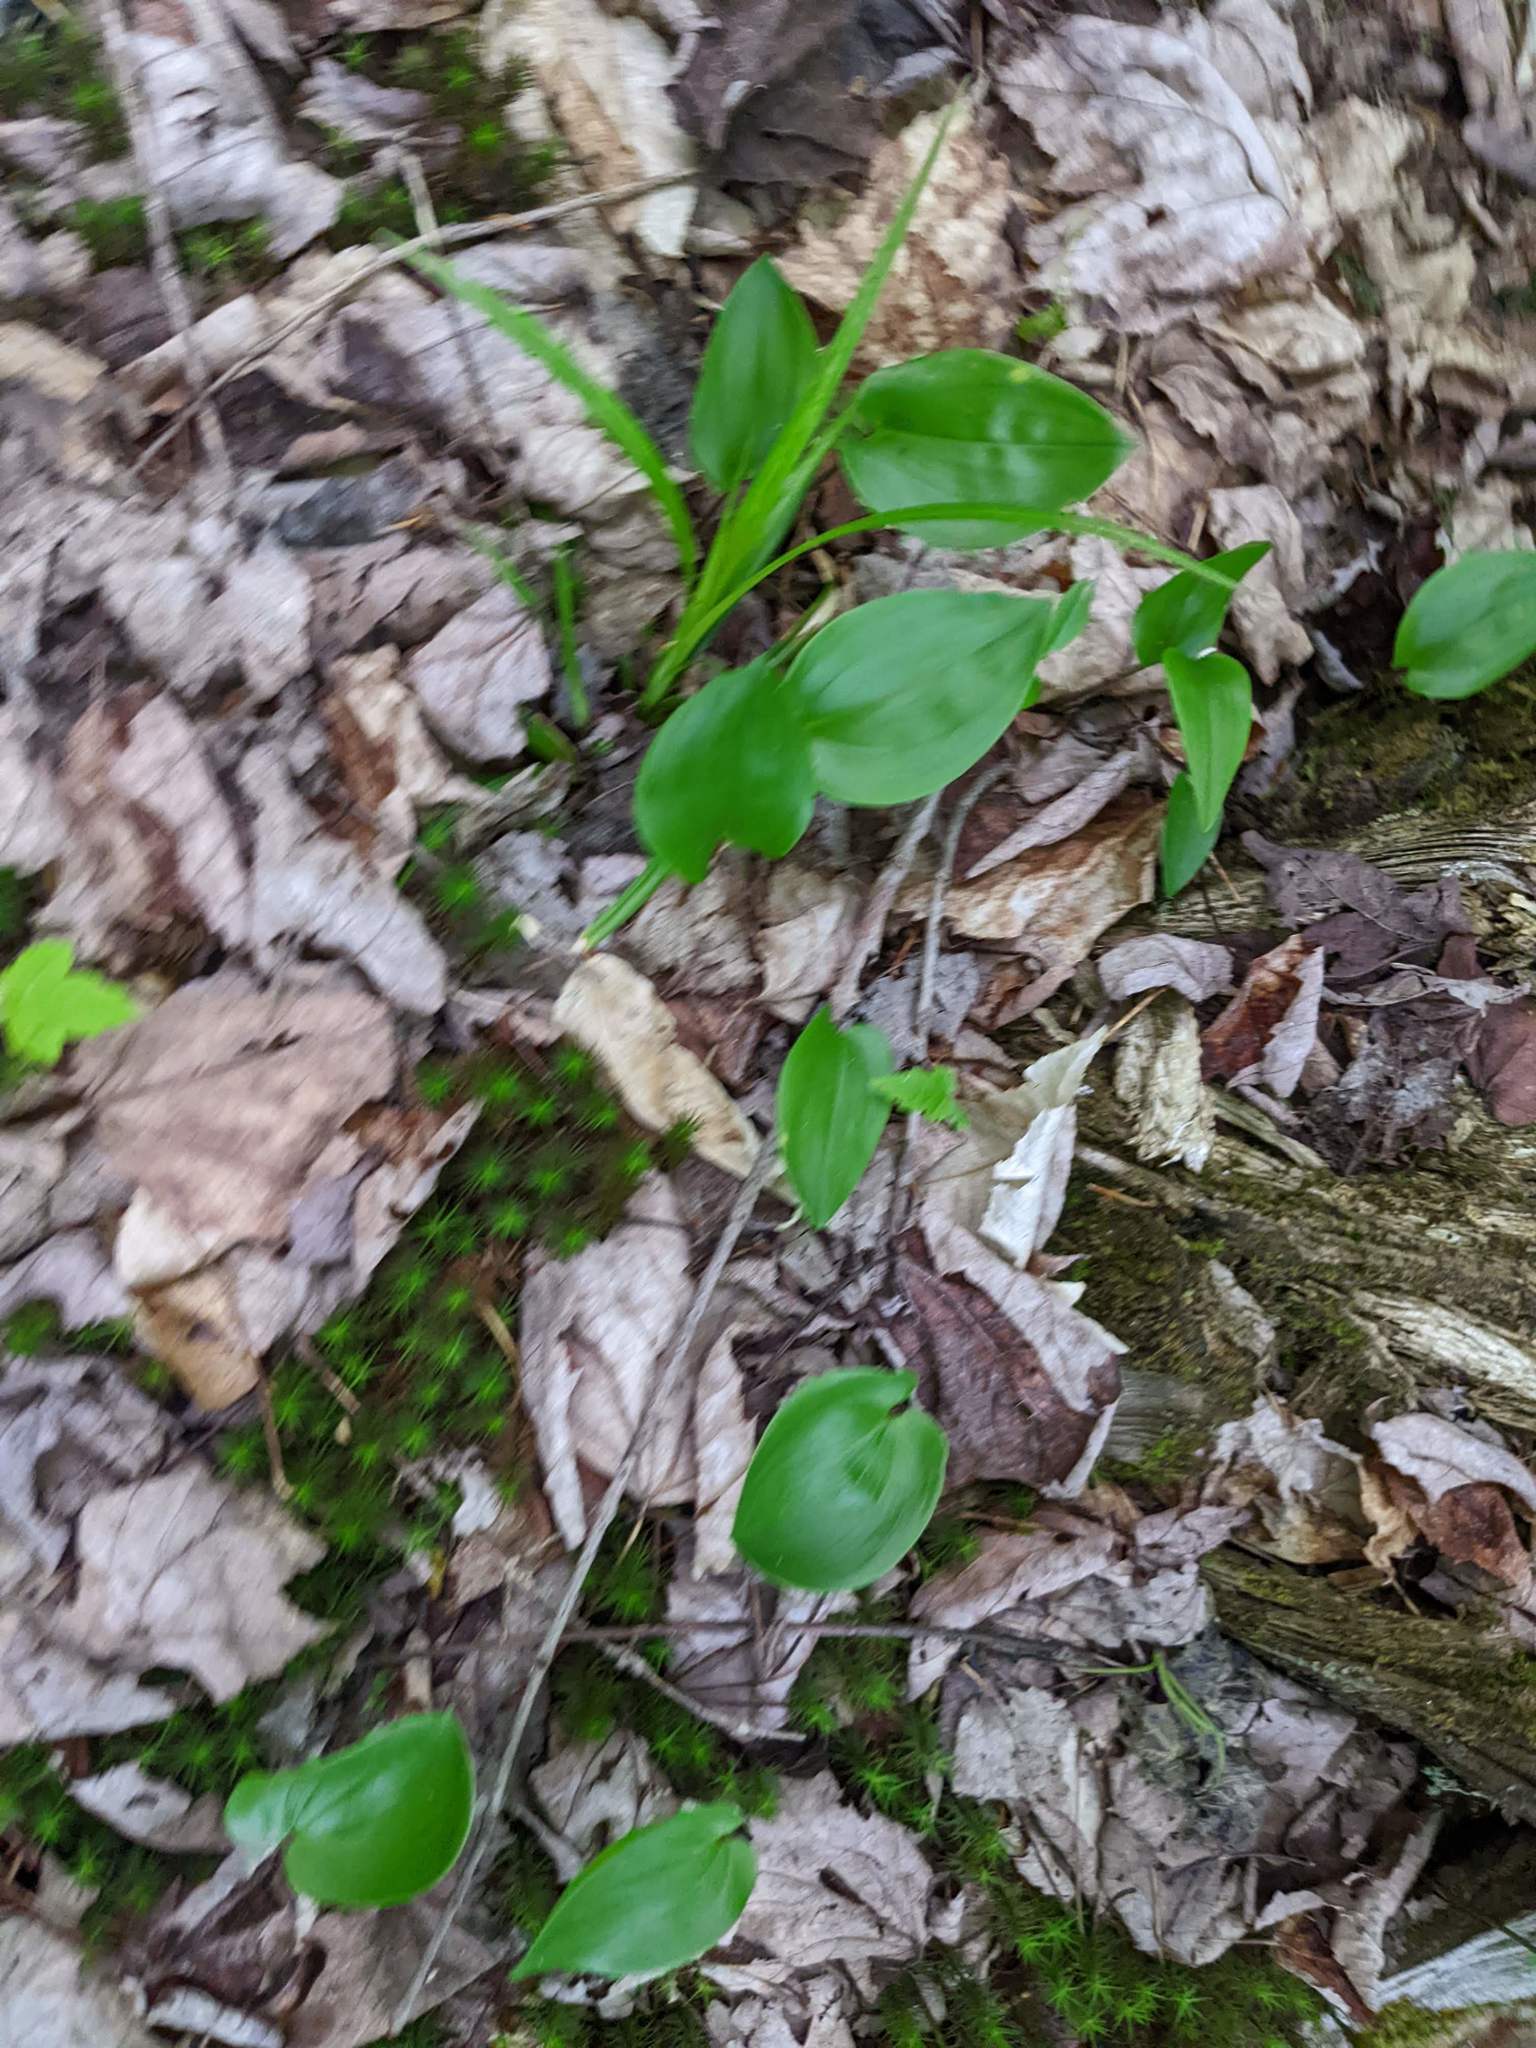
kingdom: Plantae
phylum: Tracheophyta
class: Liliopsida
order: Asparagales
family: Asparagaceae
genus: Maianthemum
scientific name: Maianthemum canadense
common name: False lily-of-the-valley
